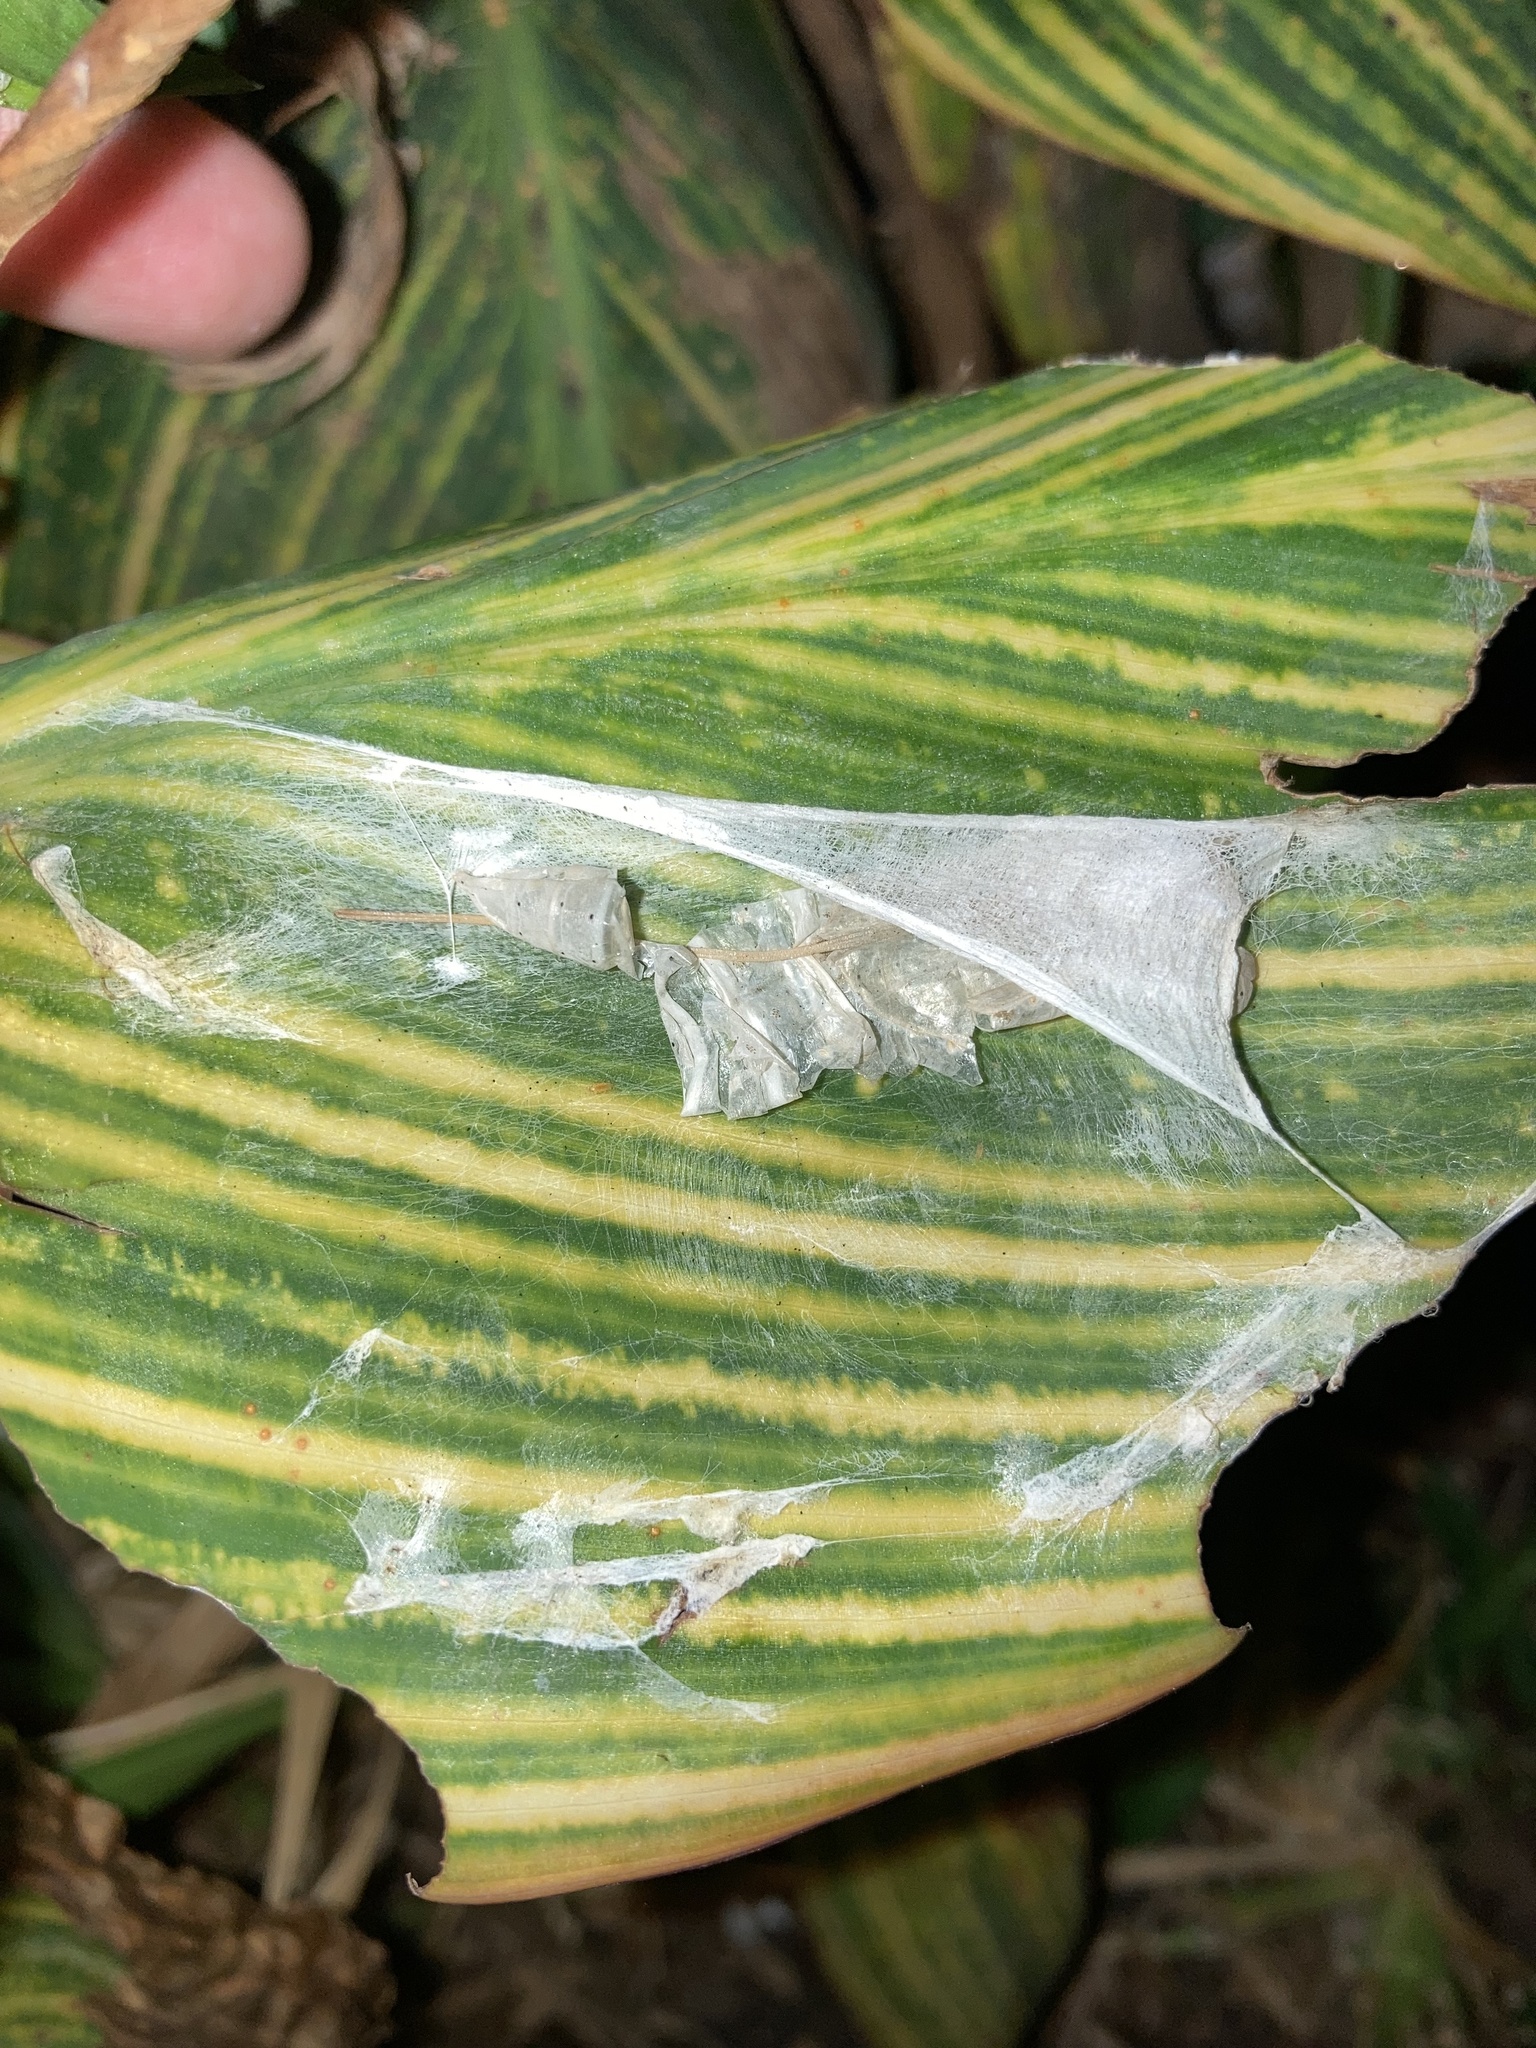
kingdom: Animalia
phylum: Arthropoda
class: Insecta
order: Lepidoptera
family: Hesperiidae
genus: Calpodes
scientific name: Calpodes ethlius
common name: Brazilian skipper
